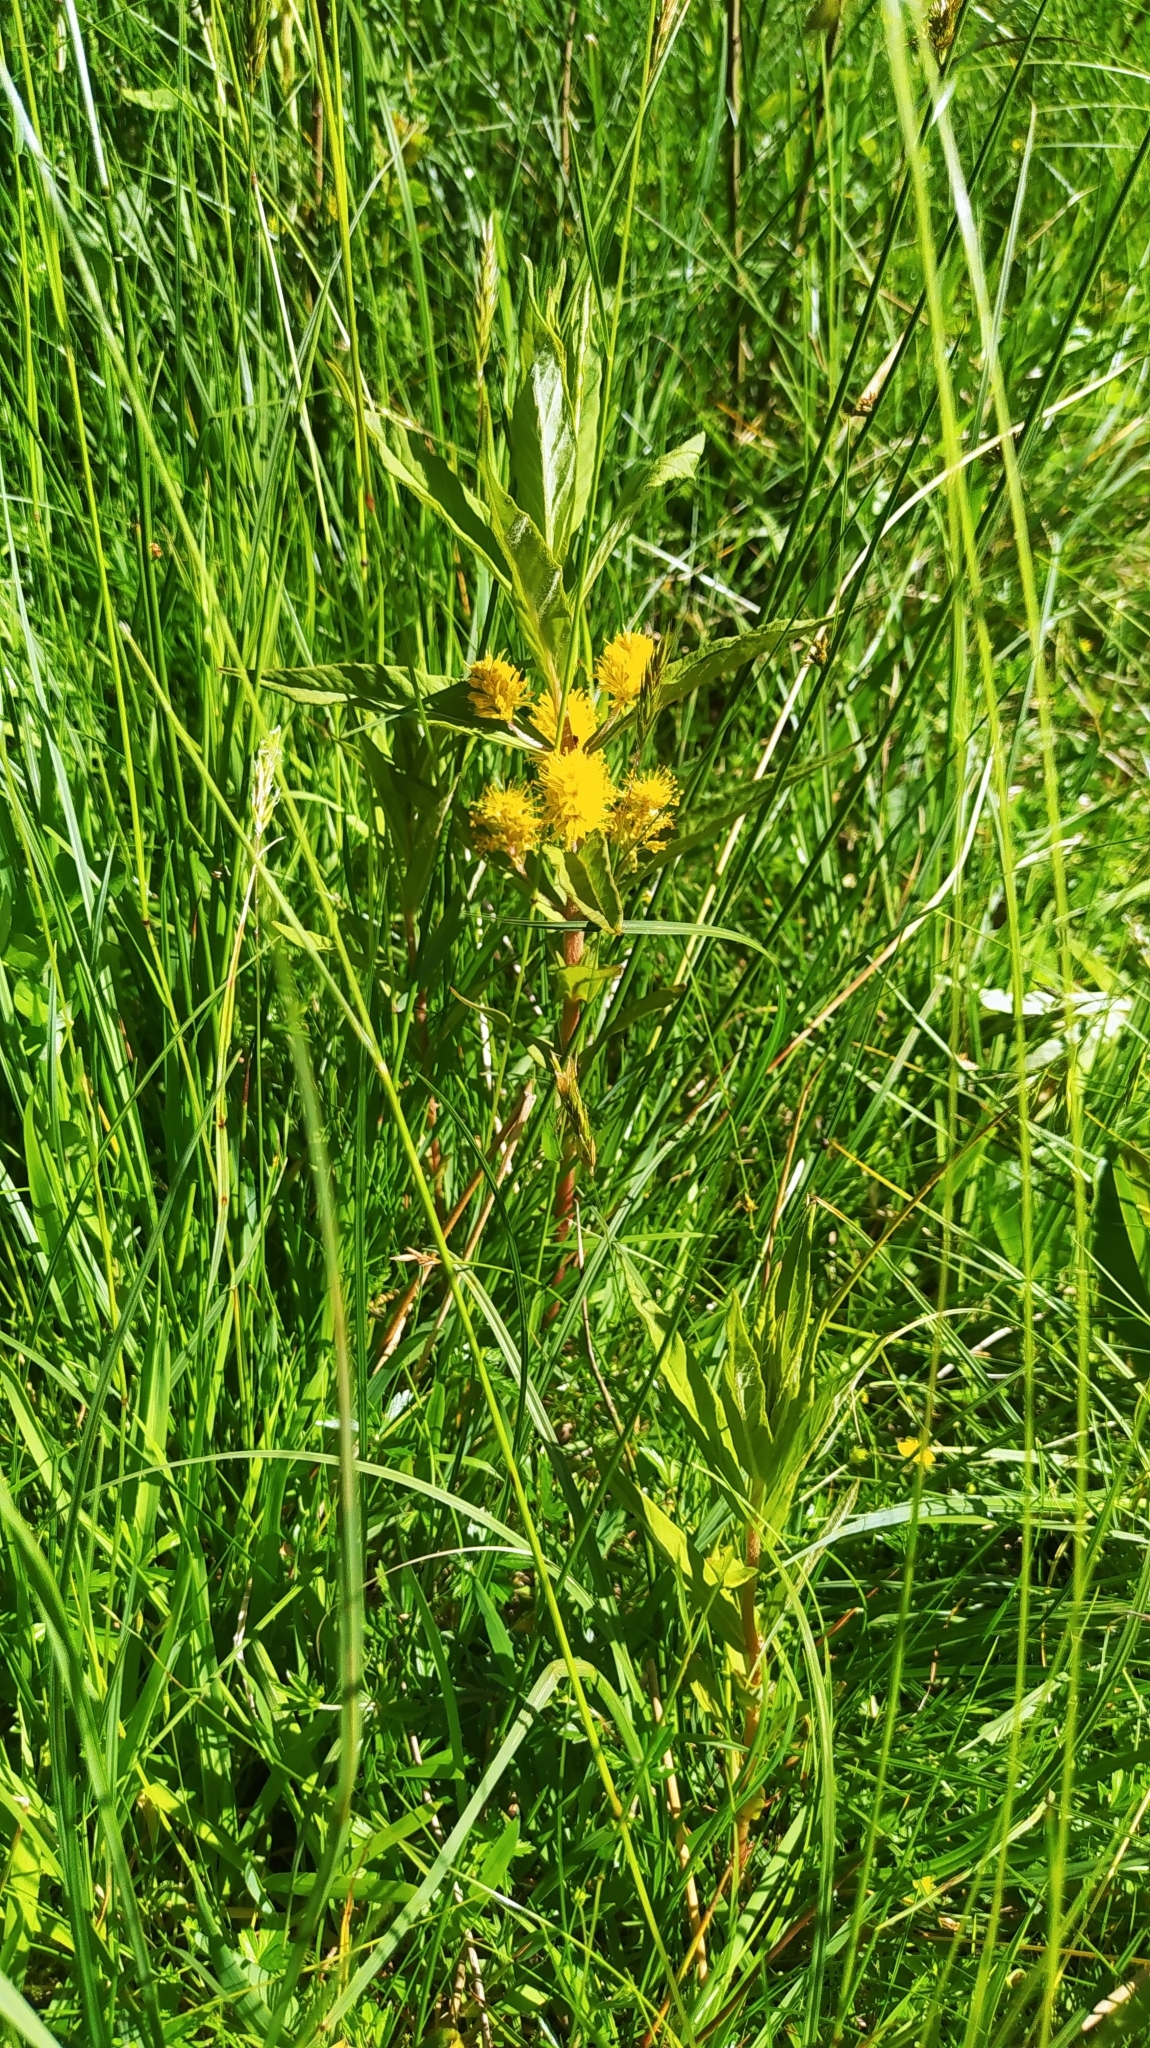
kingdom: Plantae
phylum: Tracheophyta
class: Magnoliopsida
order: Ericales
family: Primulaceae
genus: Lysimachia
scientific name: Lysimachia thyrsiflora
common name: Tufted loosestrife
